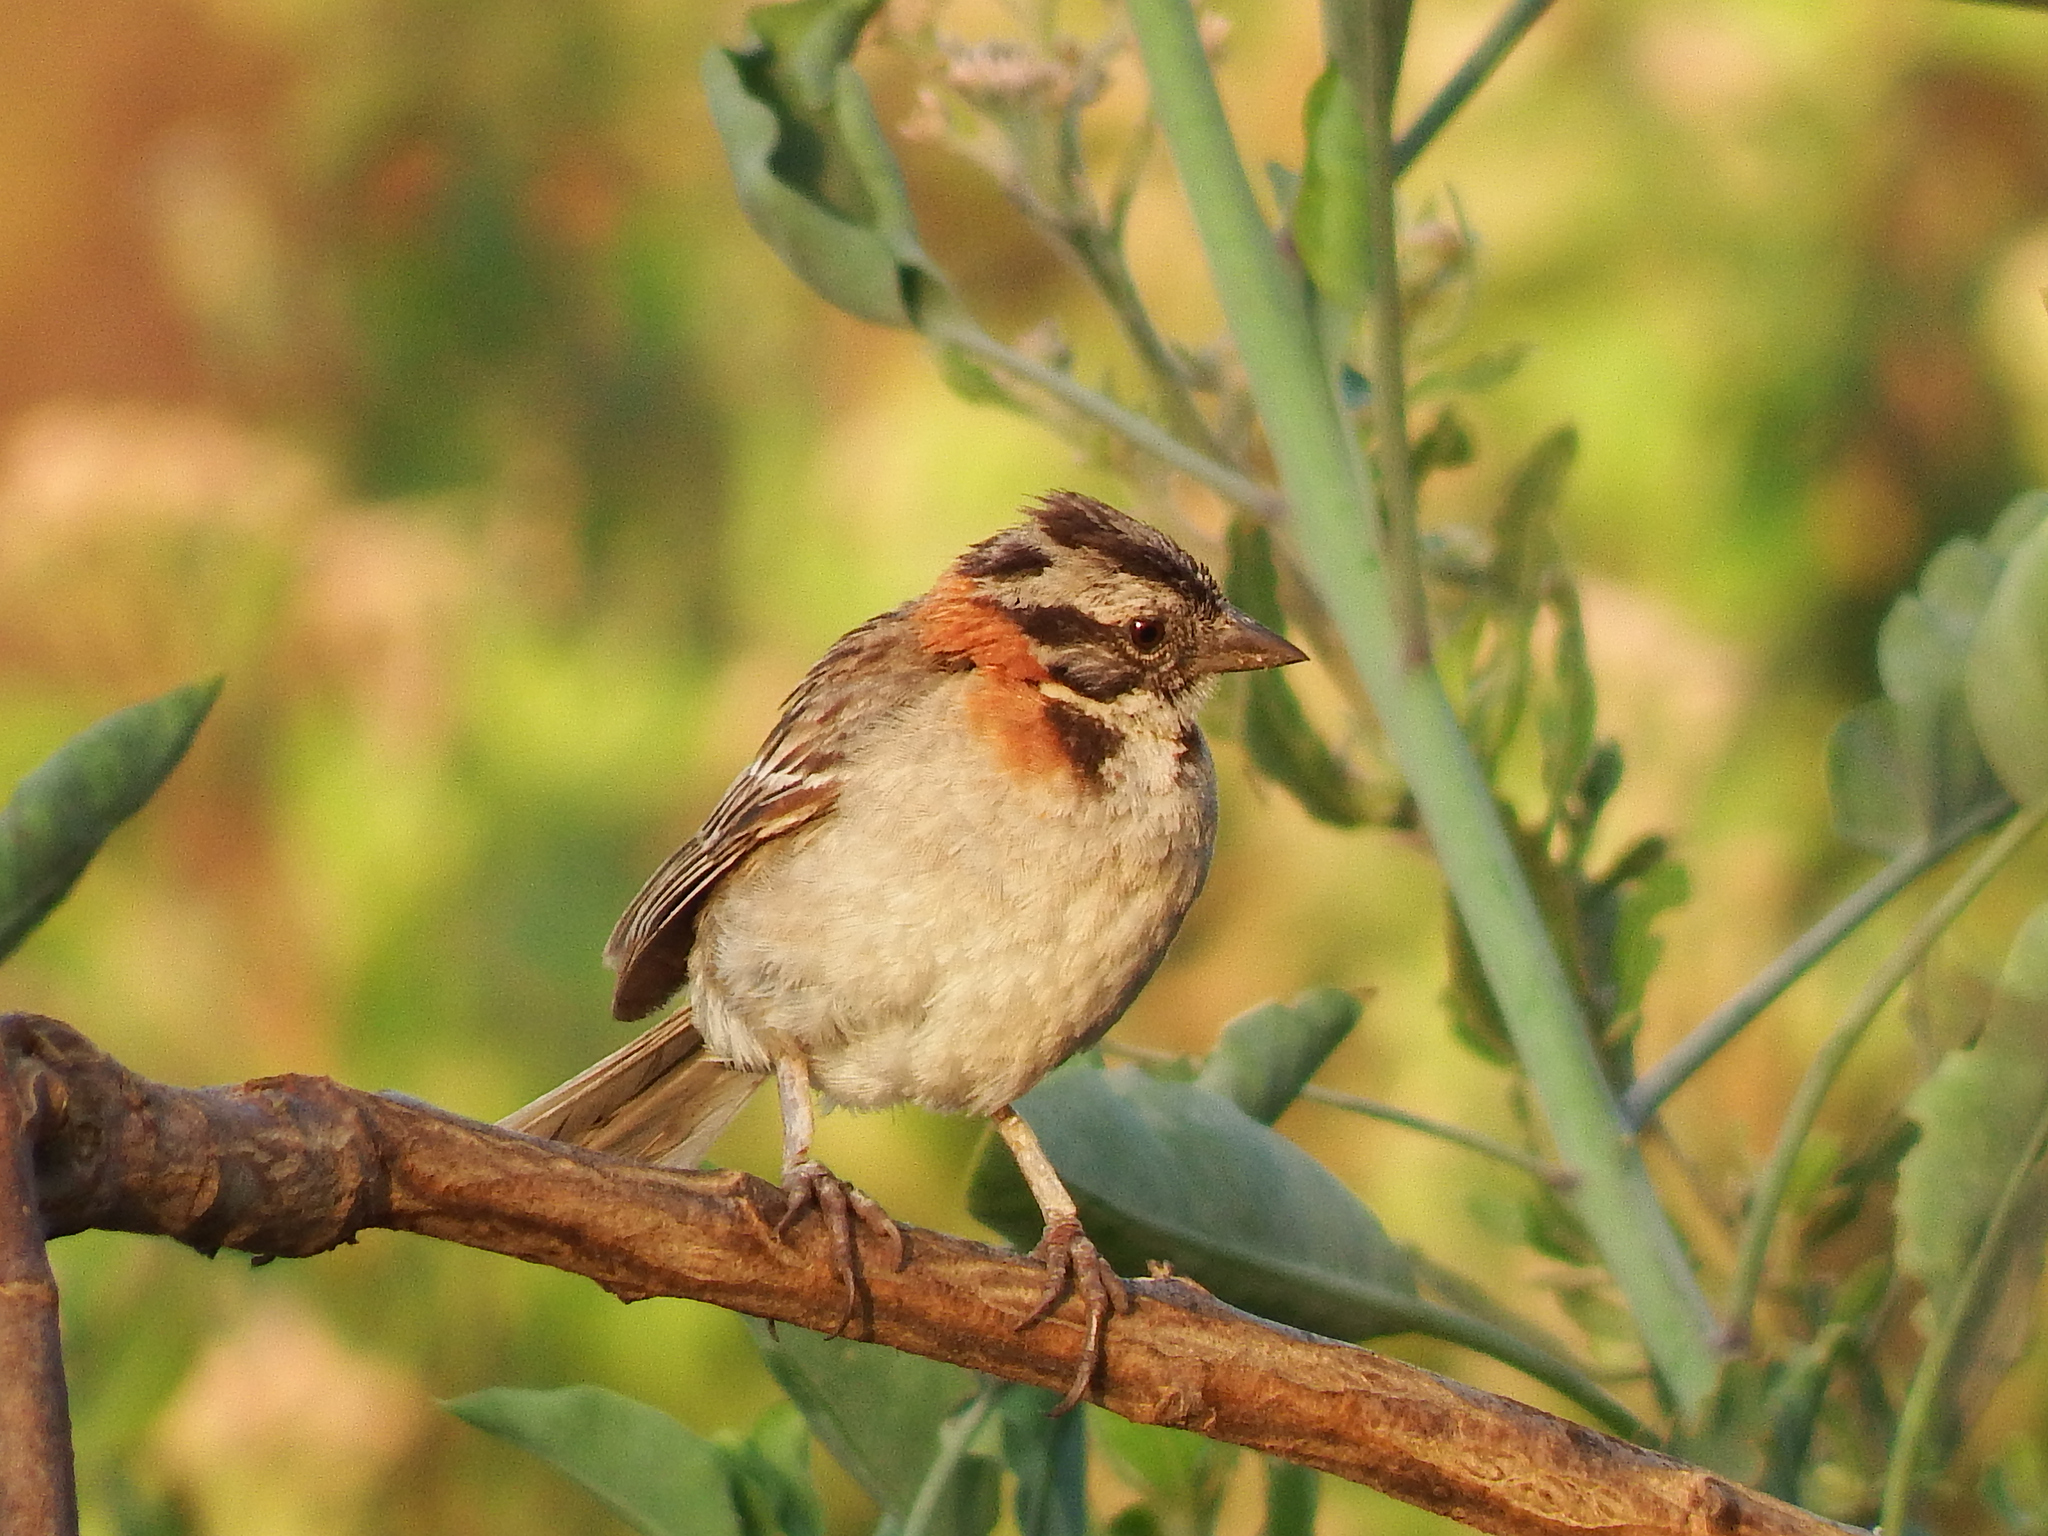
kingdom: Animalia
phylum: Chordata
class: Aves
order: Passeriformes
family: Passerellidae
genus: Zonotrichia
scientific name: Zonotrichia capensis
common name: Rufous-collared sparrow
